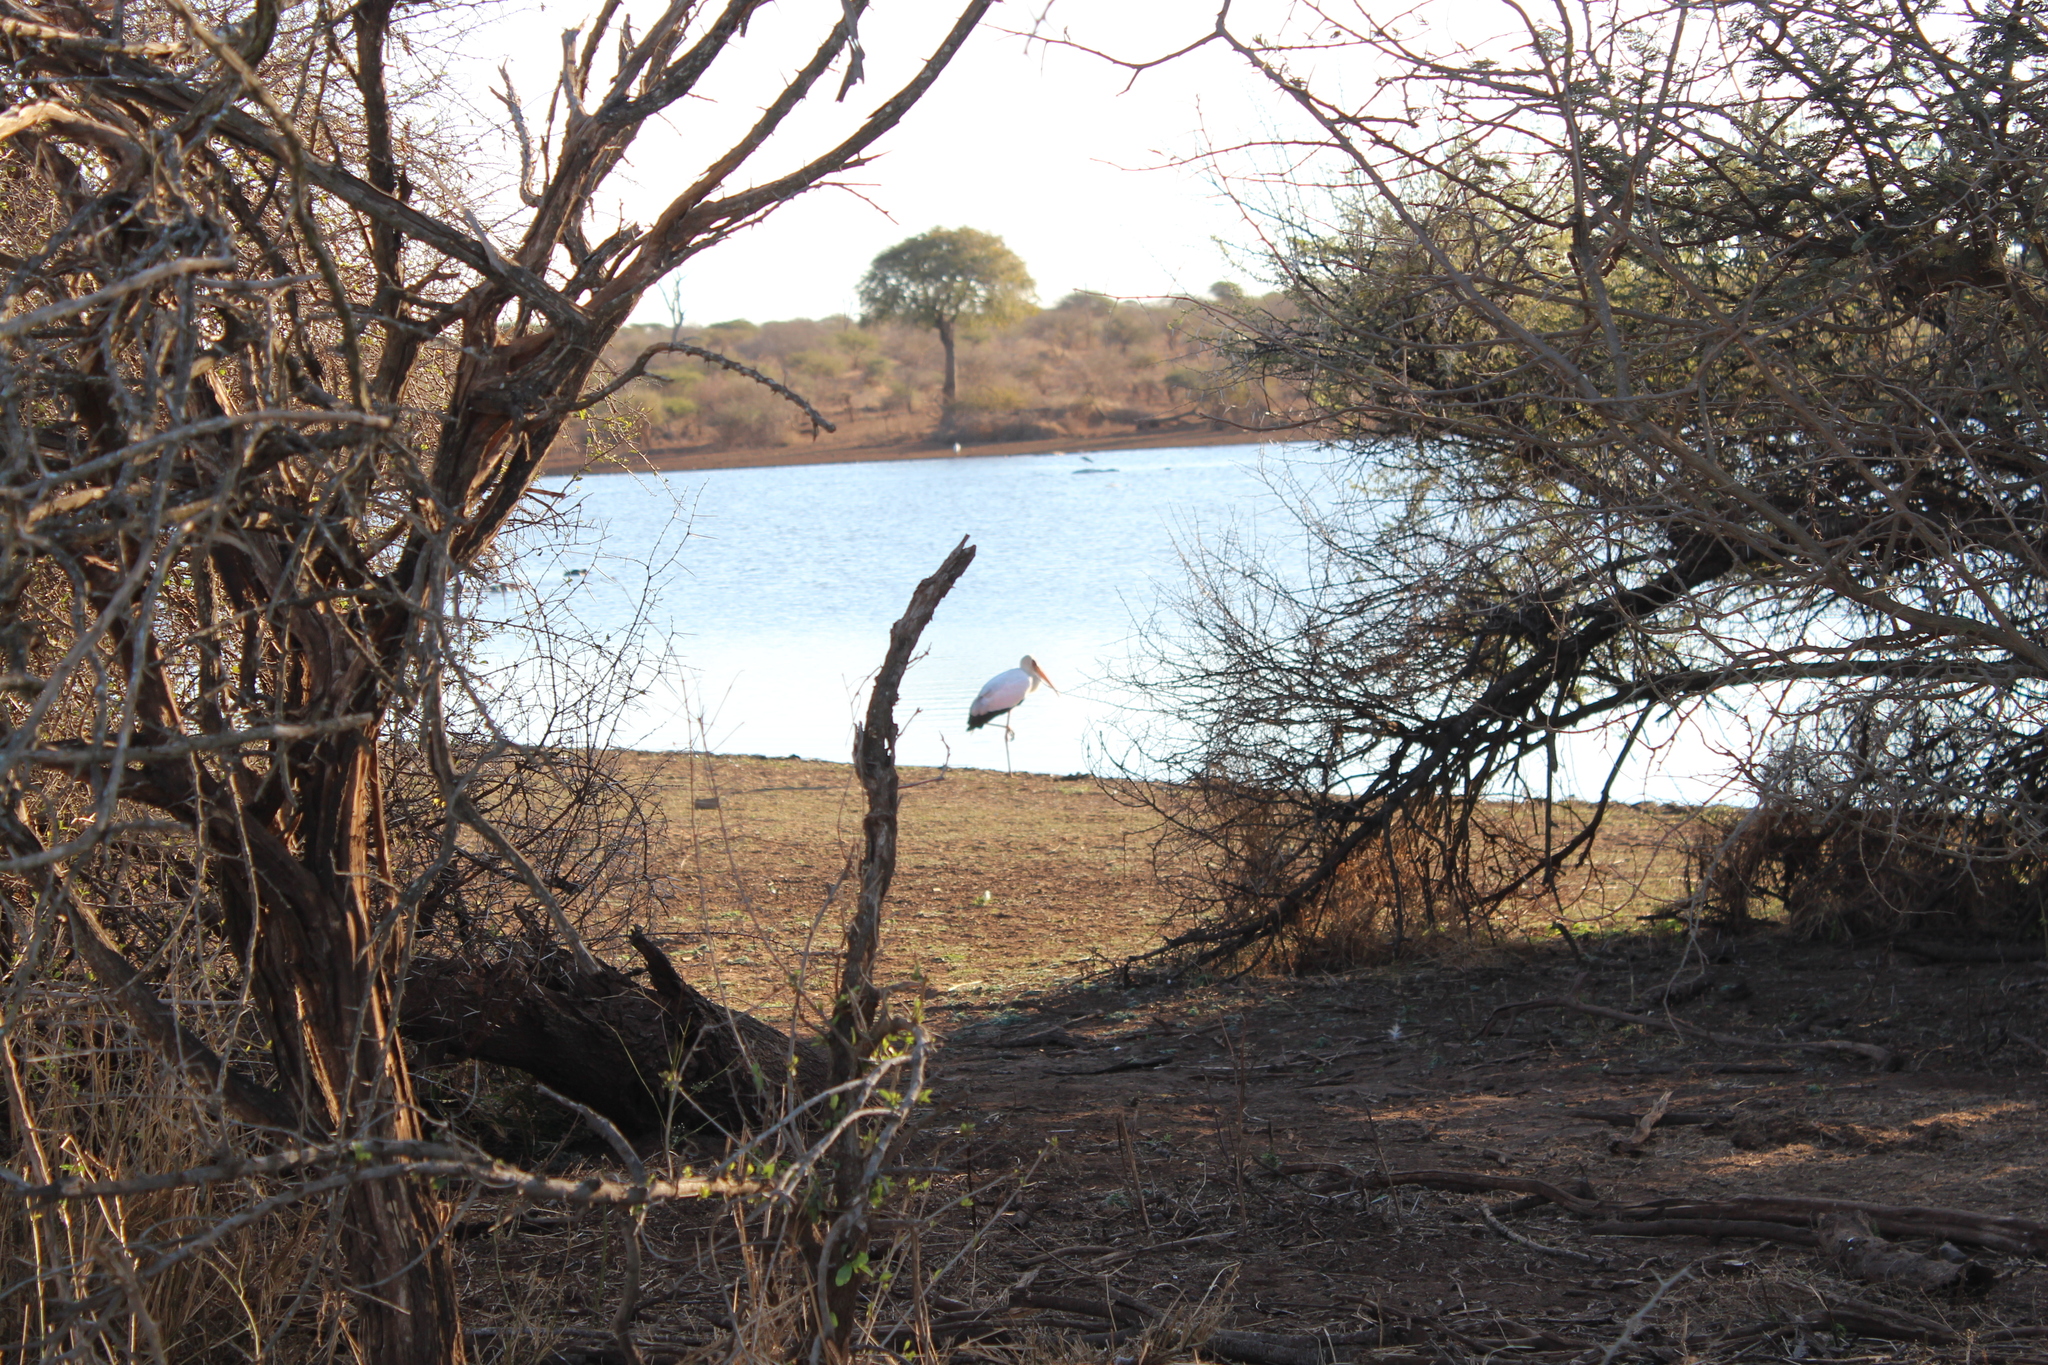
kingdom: Animalia
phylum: Chordata
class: Aves
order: Ciconiiformes
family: Ciconiidae
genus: Mycteria
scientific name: Mycteria ibis
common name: Yellow-billed stork
